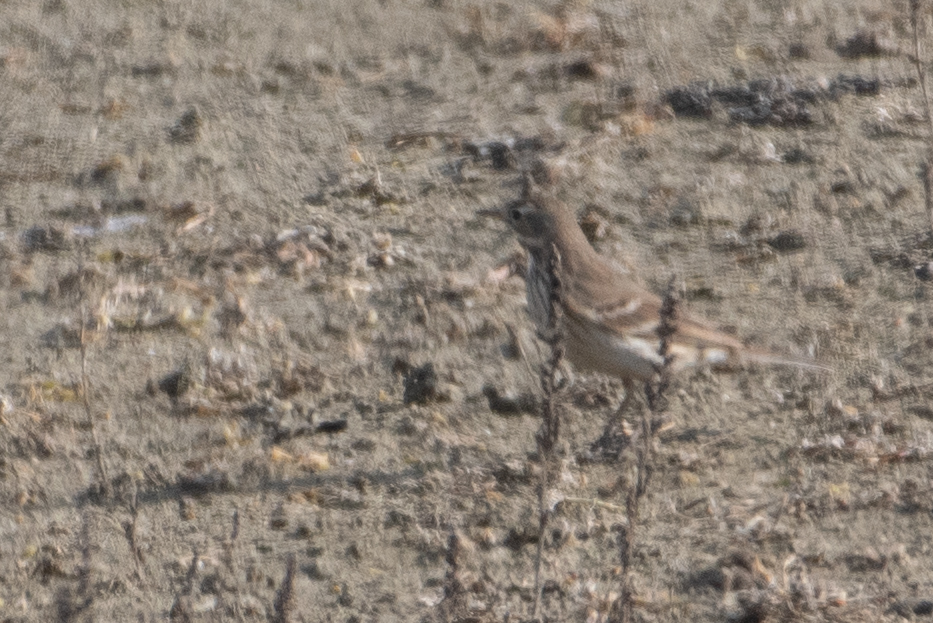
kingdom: Animalia
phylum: Chordata
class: Aves
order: Passeriformes
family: Motacillidae
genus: Anthus
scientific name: Anthus rubescens
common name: Buff-bellied pipit
